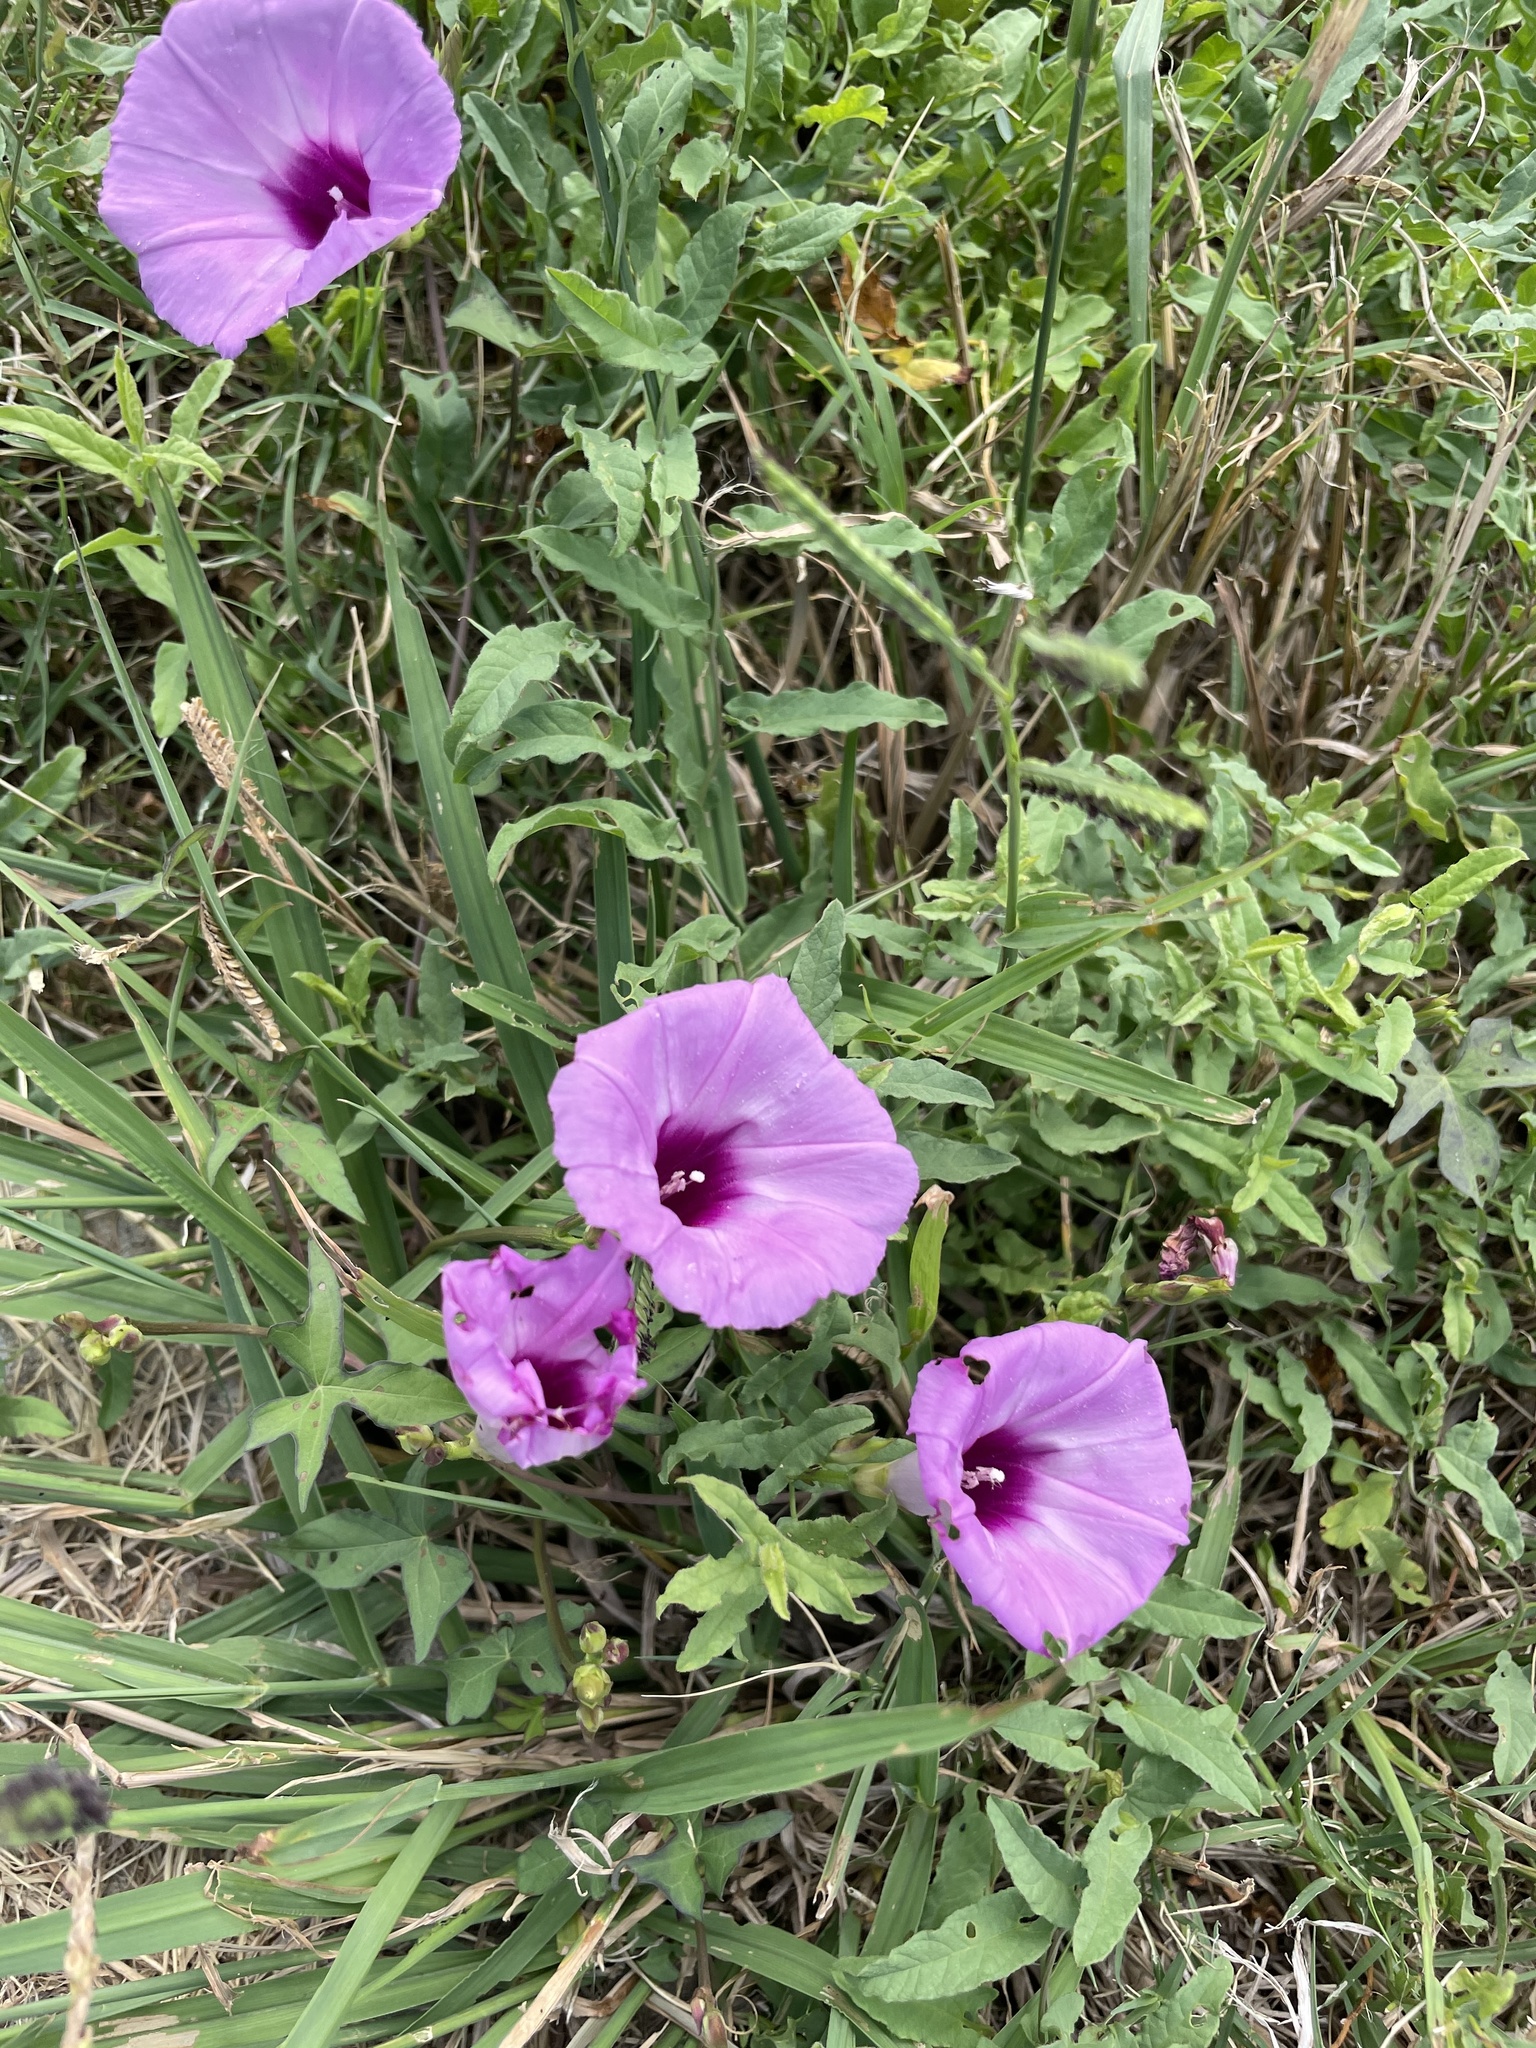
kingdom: Plantae
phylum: Tracheophyta
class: Magnoliopsida
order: Solanales
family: Convolvulaceae
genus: Ipomoea
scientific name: Ipomoea cordatotriloba
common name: Cotton morning glory
